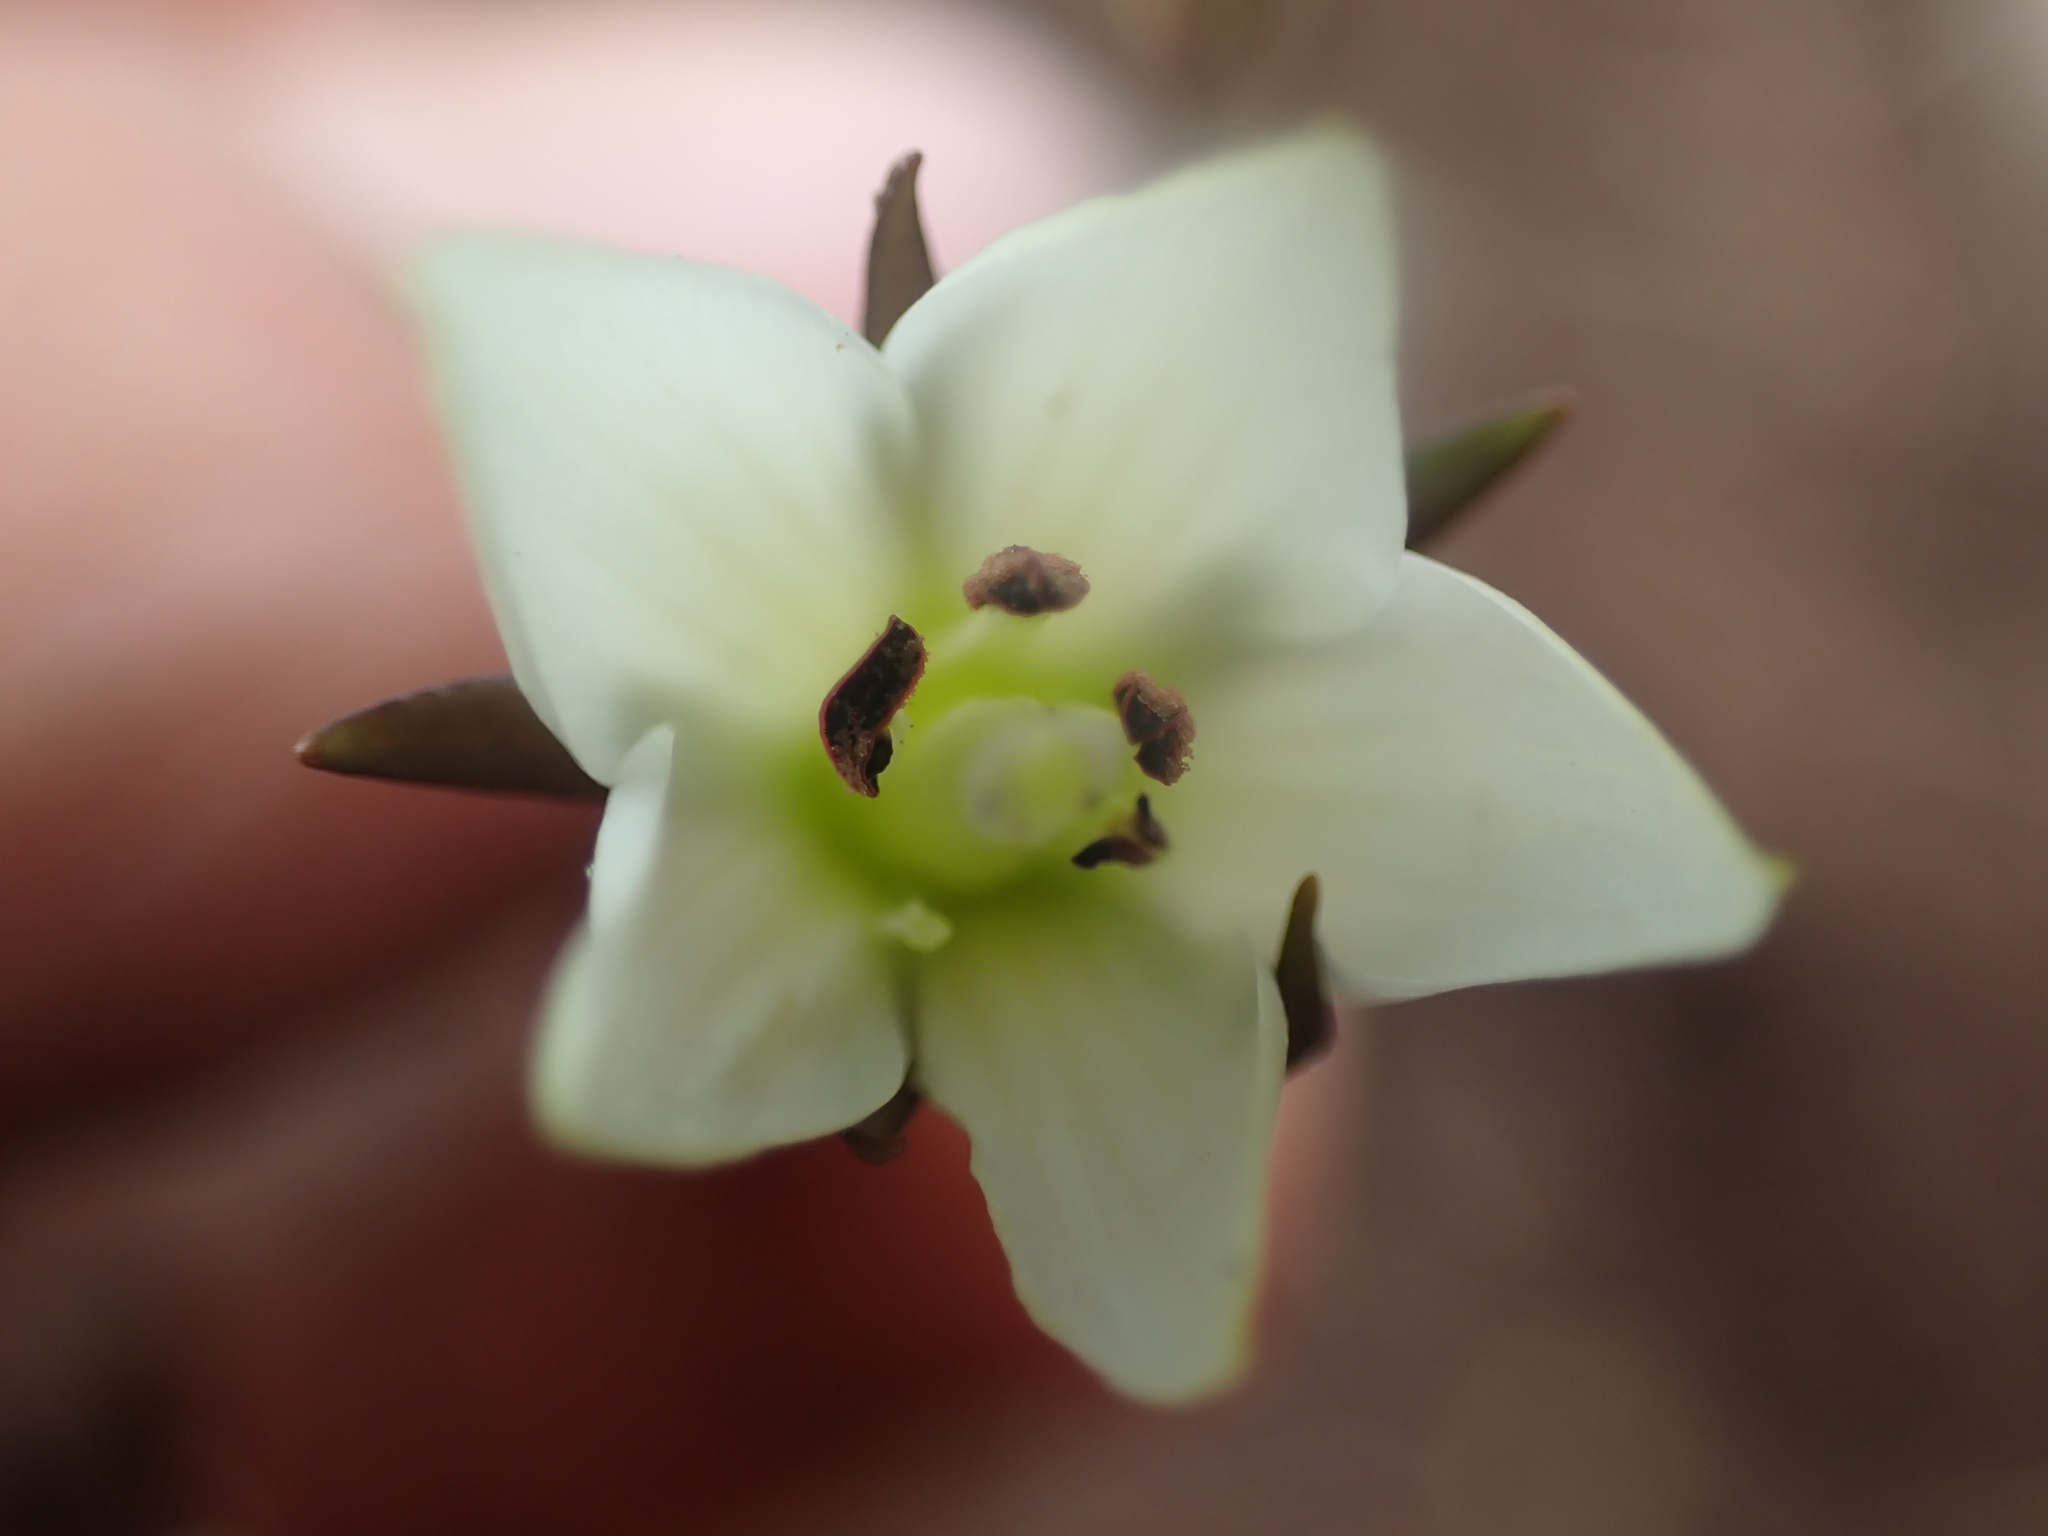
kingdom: Plantae
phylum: Tracheophyta
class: Magnoliopsida
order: Gentianales
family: Gentianaceae
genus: Gentianella
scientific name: Gentianella grisebachii
